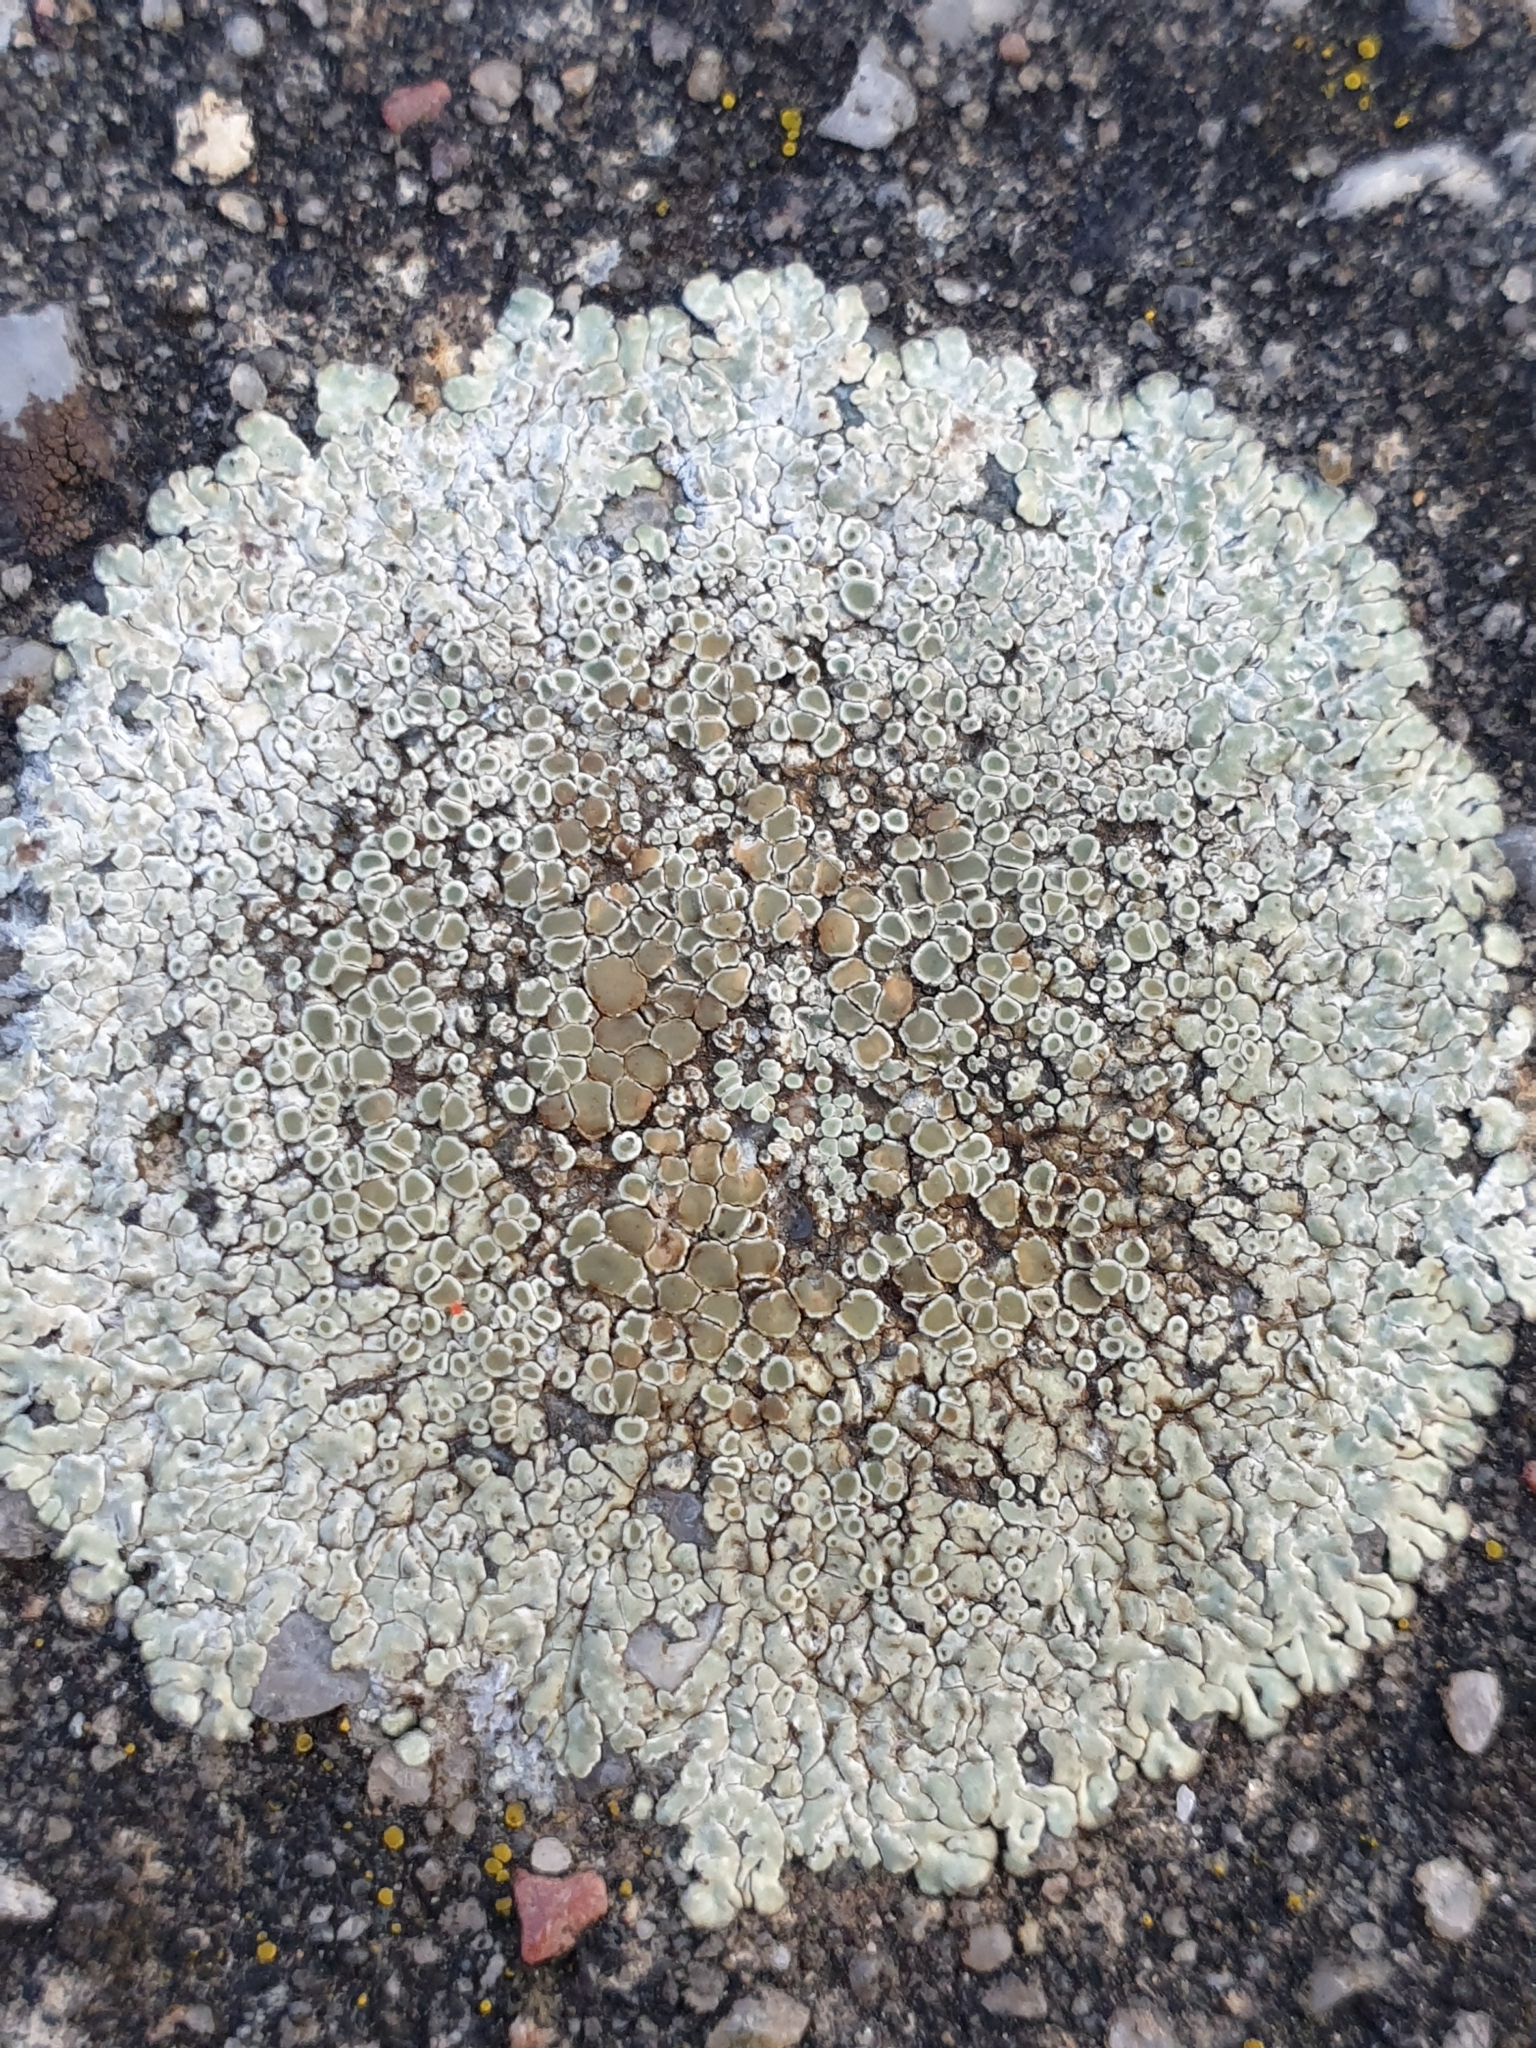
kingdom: Fungi
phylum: Ascomycota
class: Lecanoromycetes
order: Lecanorales
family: Lecanoraceae
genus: Protoparmeliopsis
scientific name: Protoparmeliopsis muralis
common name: Stonewall rim lichen
